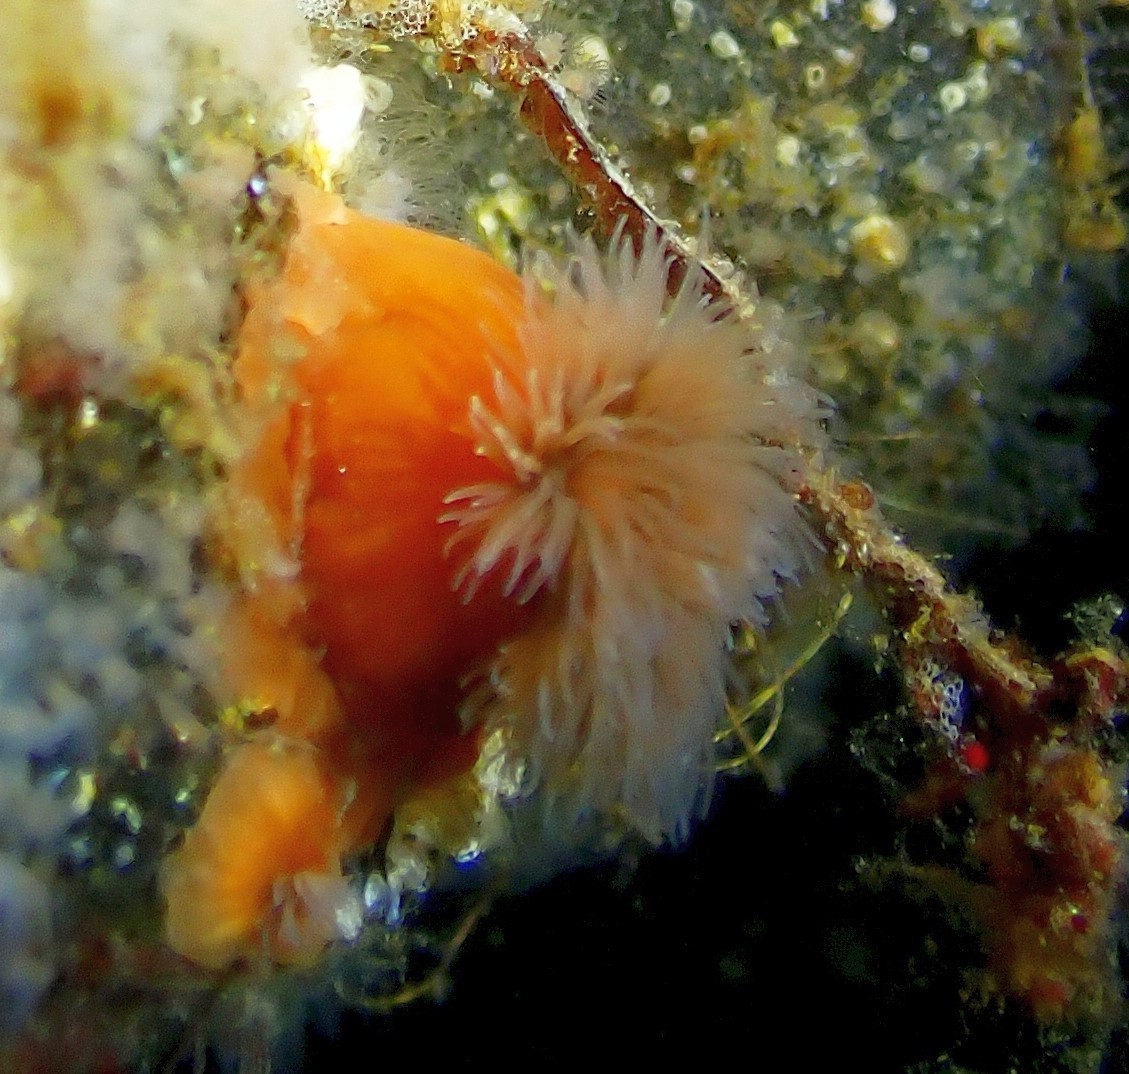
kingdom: Animalia
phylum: Cnidaria
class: Anthozoa
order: Actiniaria
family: Metridiidae
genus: Metridium
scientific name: Metridium senile
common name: Clonal plumose anemone
